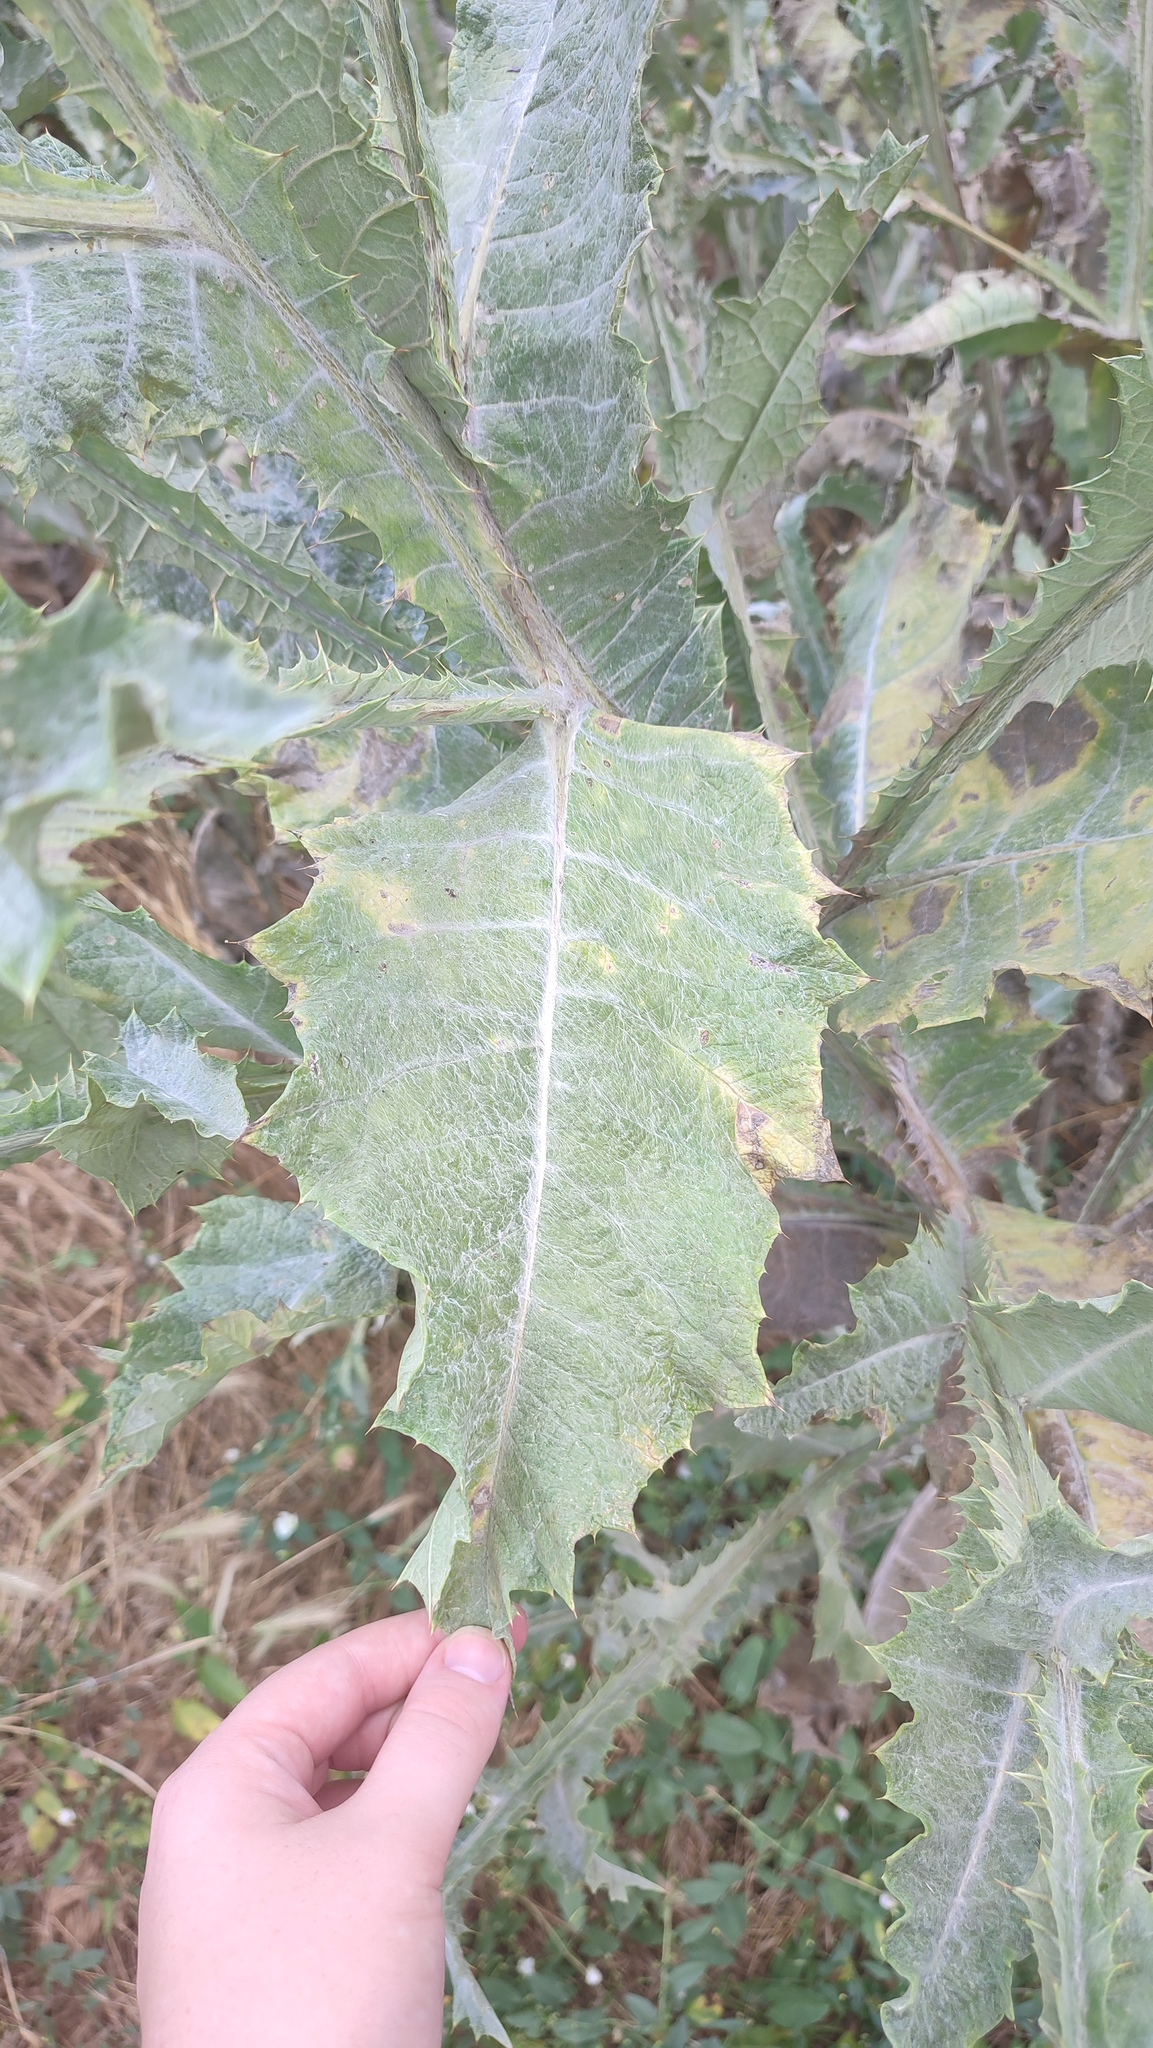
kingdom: Plantae
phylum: Tracheophyta
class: Magnoliopsida
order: Asterales
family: Asteraceae
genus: Onopordum
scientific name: Onopordum acanthium
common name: Scotch thistle
